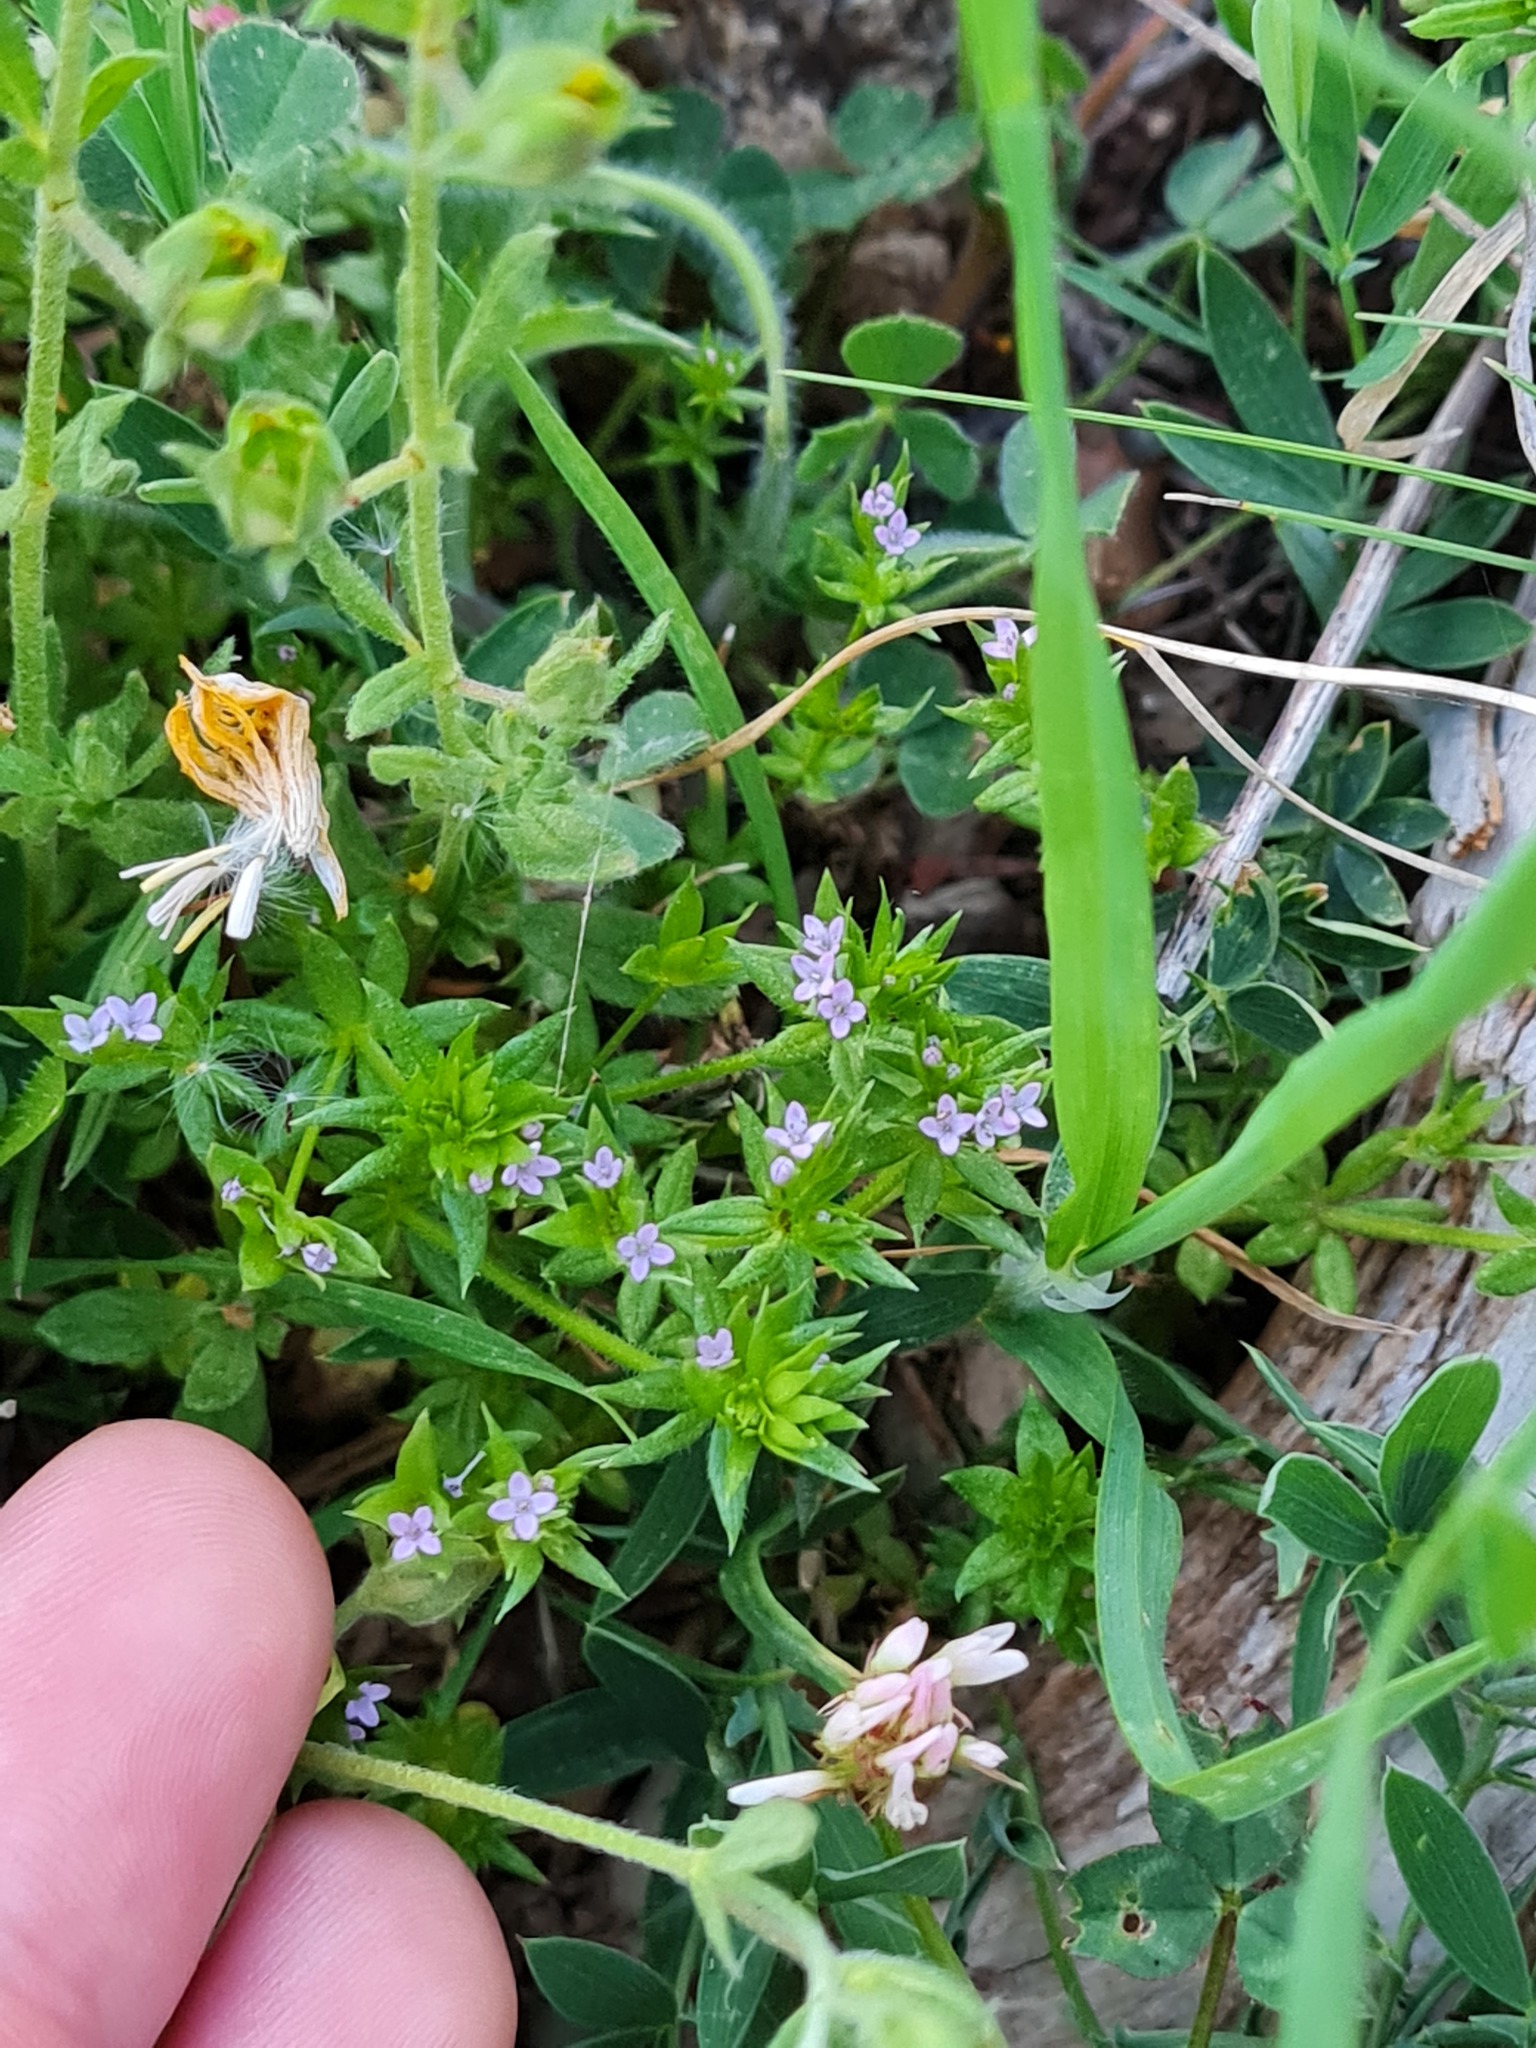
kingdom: Plantae
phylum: Tracheophyta
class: Magnoliopsida
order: Gentianales
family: Rubiaceae
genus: Sherardia
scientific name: Sherardia arvensis
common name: Field madder
